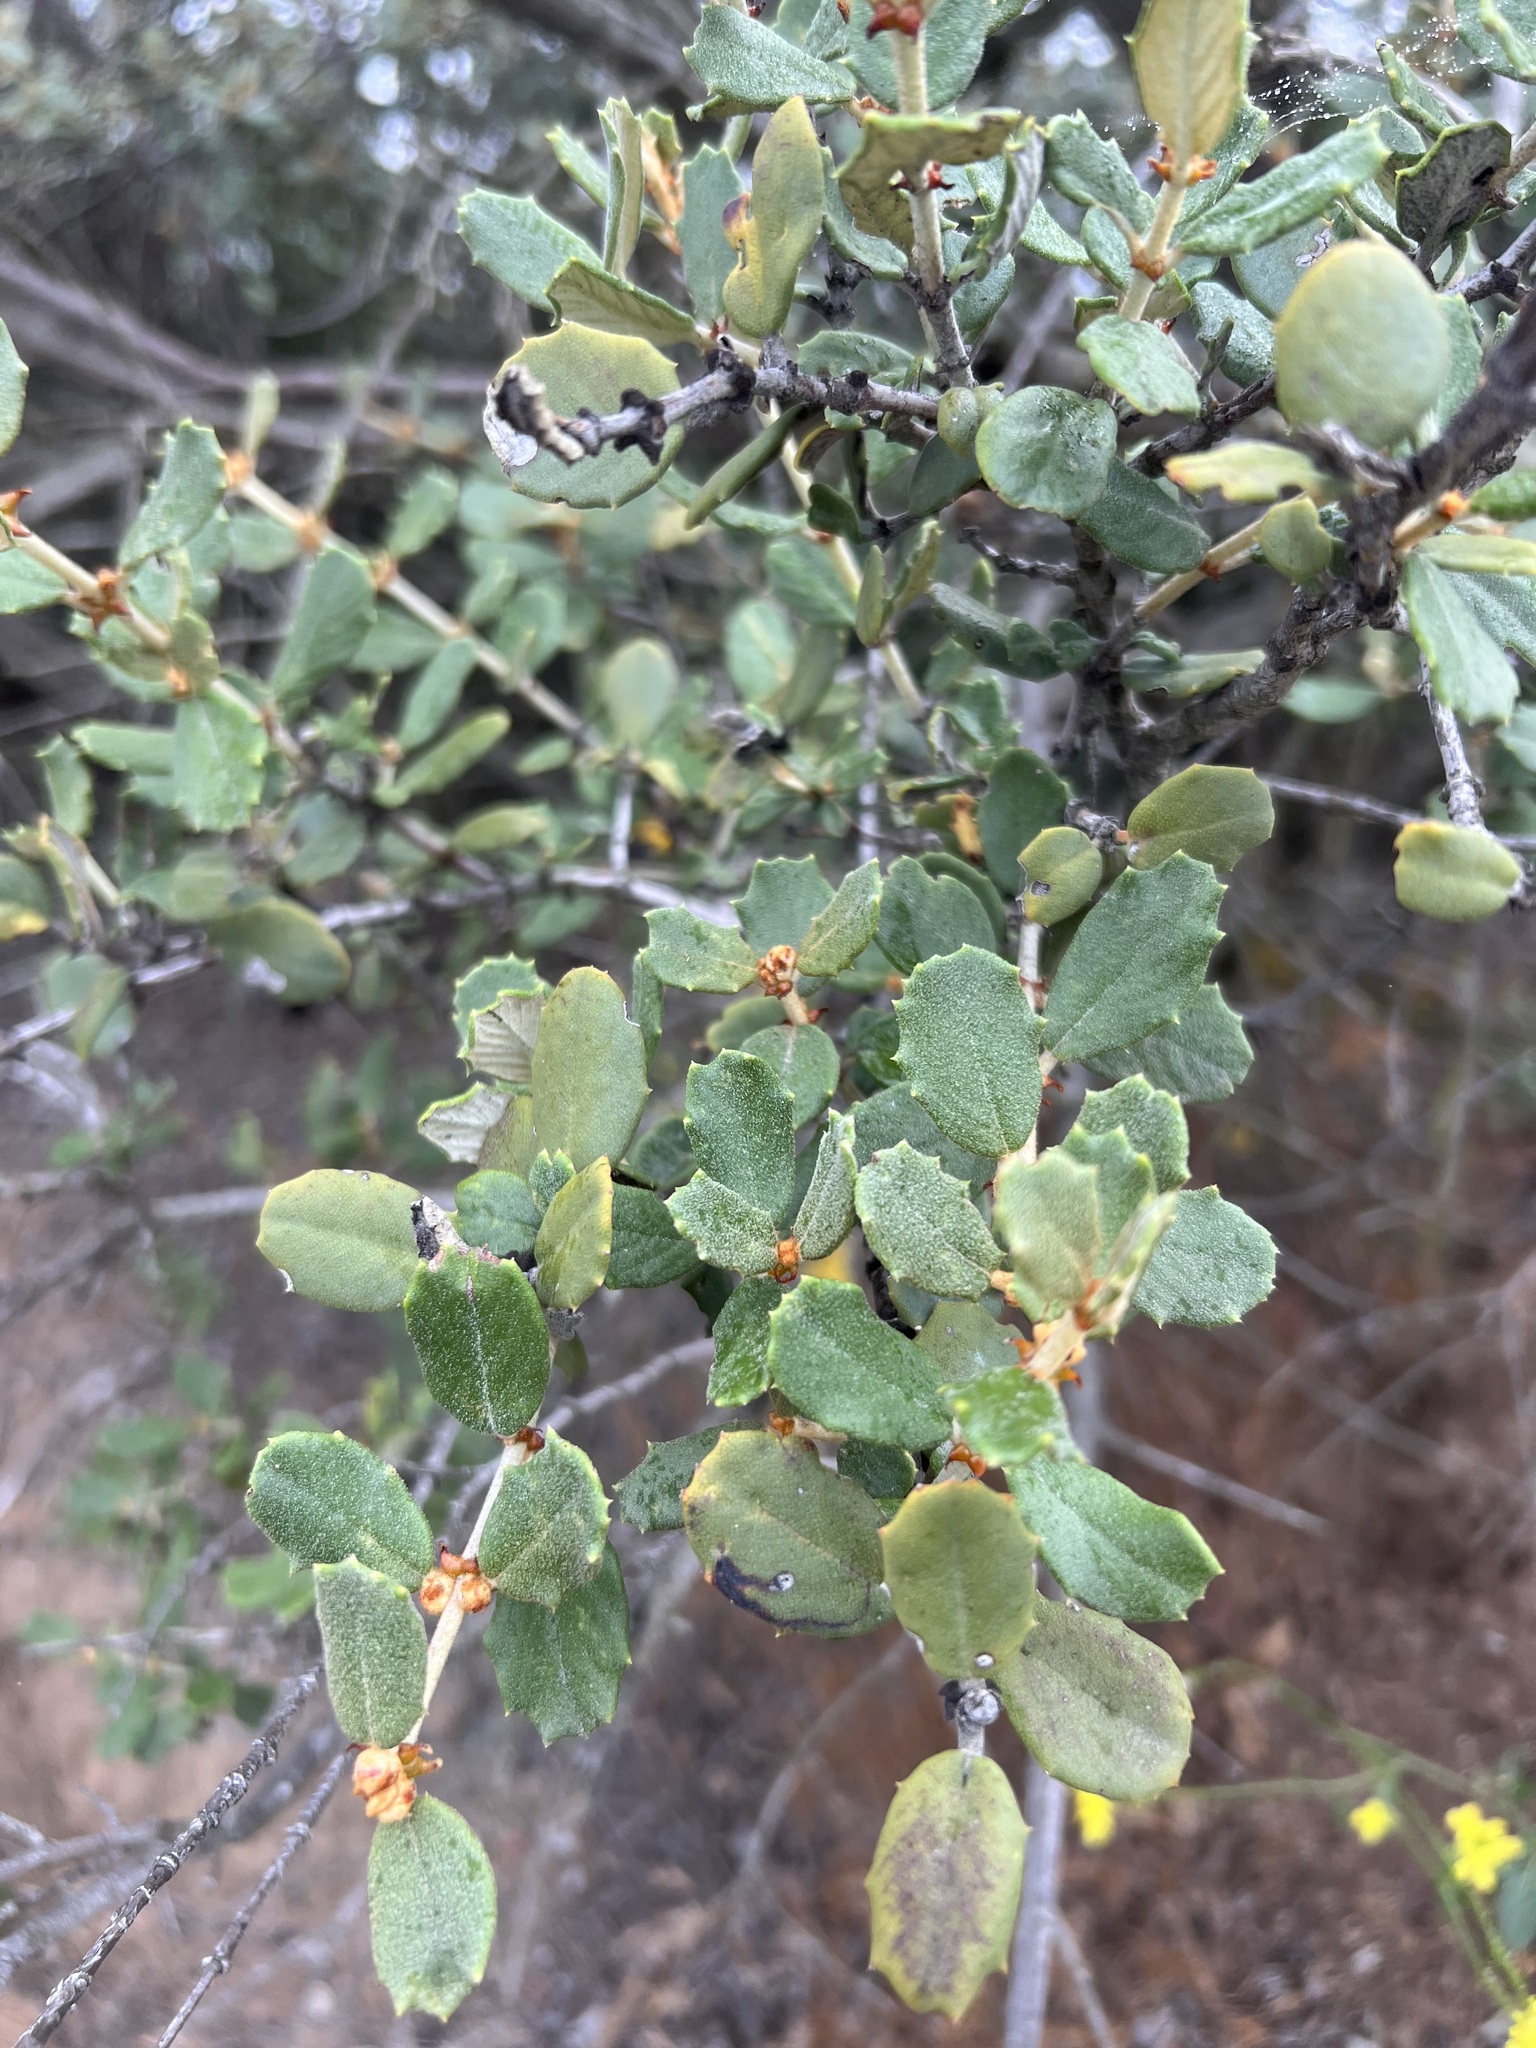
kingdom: Plantae
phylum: Tracheophyta
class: Magnoliopsida
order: Rosales
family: Rhamnaceae
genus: Ceanothus
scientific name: Ceanothus crassifolius
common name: Hoaryleaf ceanothus
